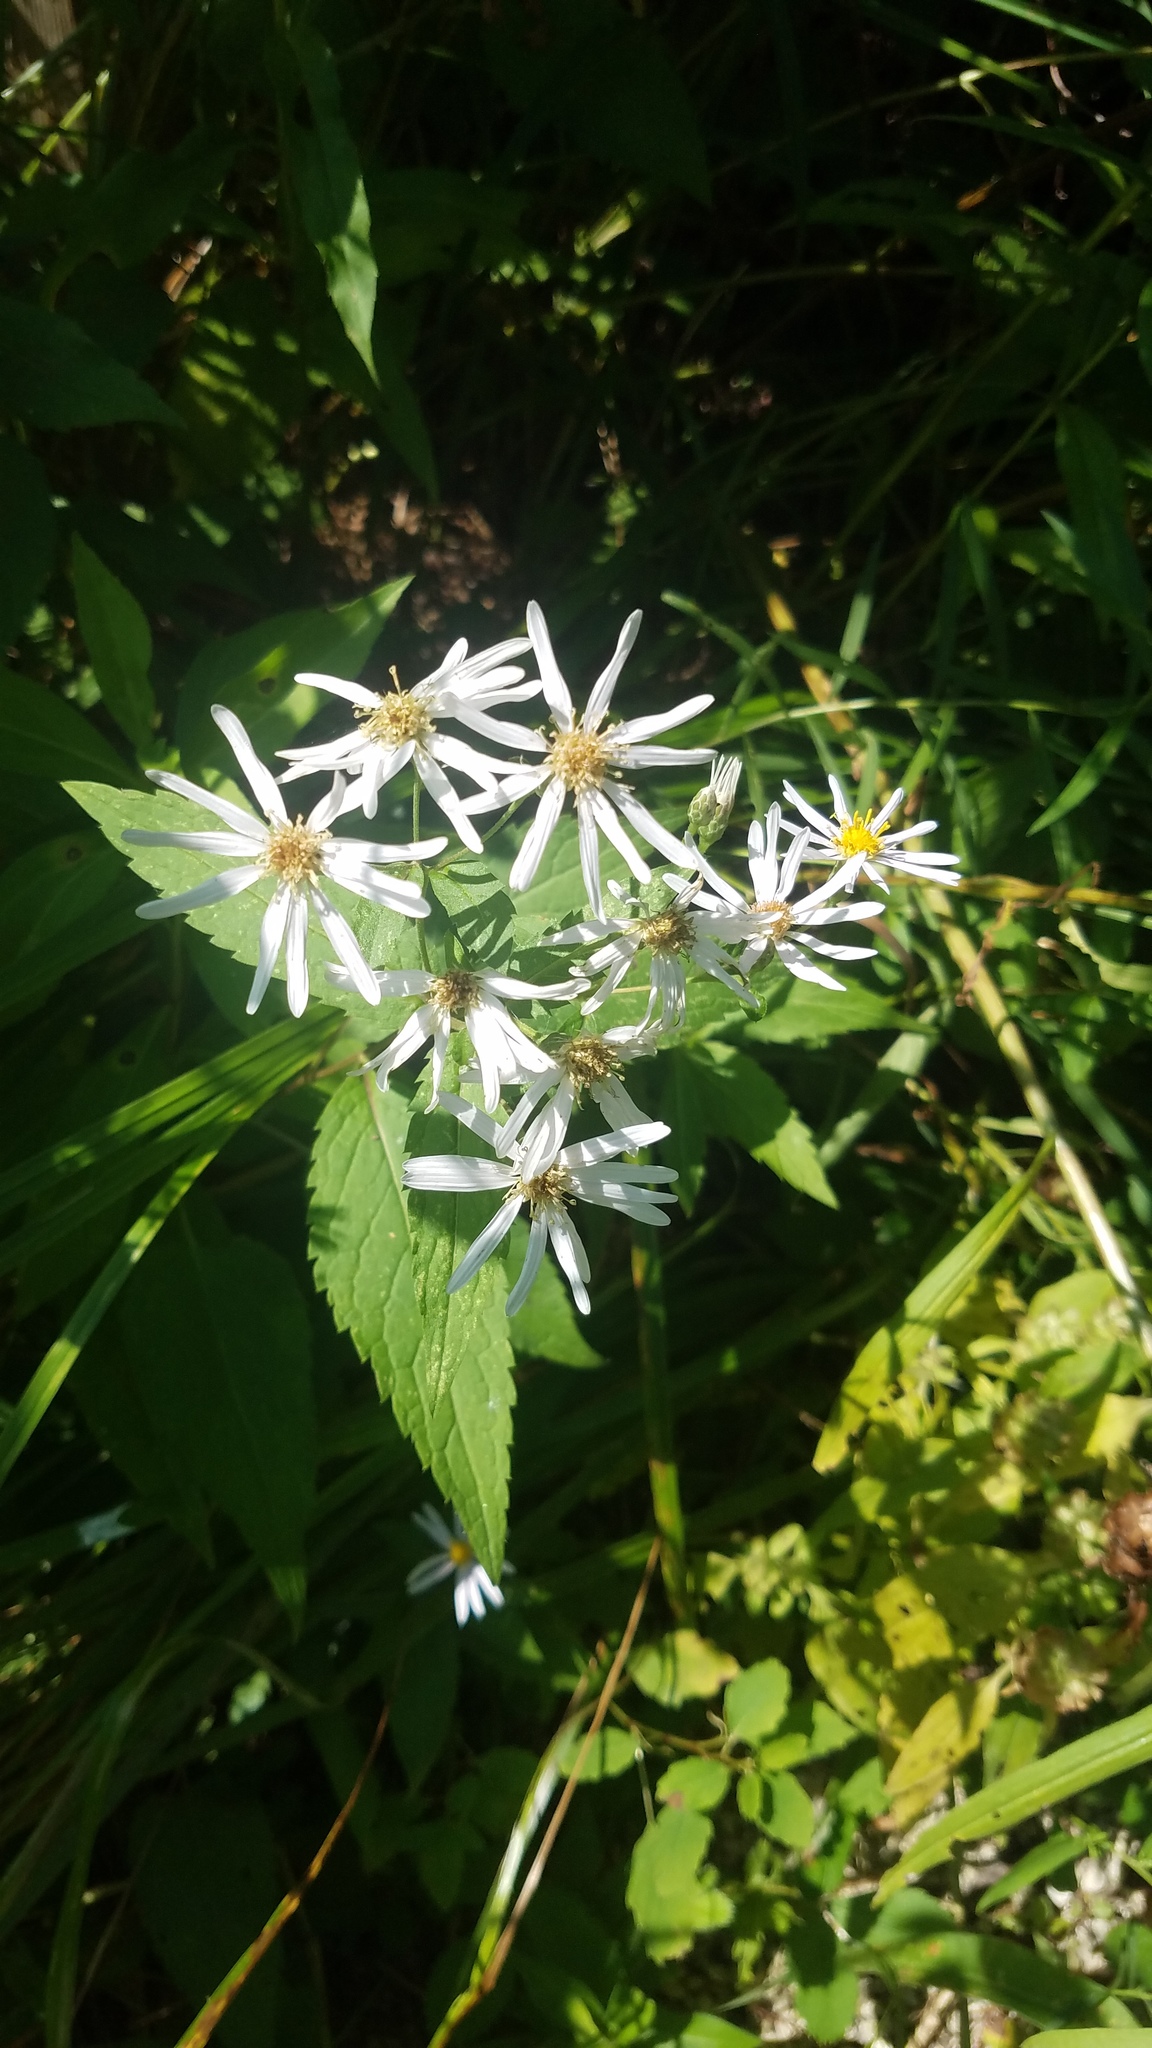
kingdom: Plantae
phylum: Tracheophyta
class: Magnoliopsida
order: Asterales
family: Asteraceae
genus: Eurybia
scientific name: Eurybia macrophylla
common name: Big-leaved aster
